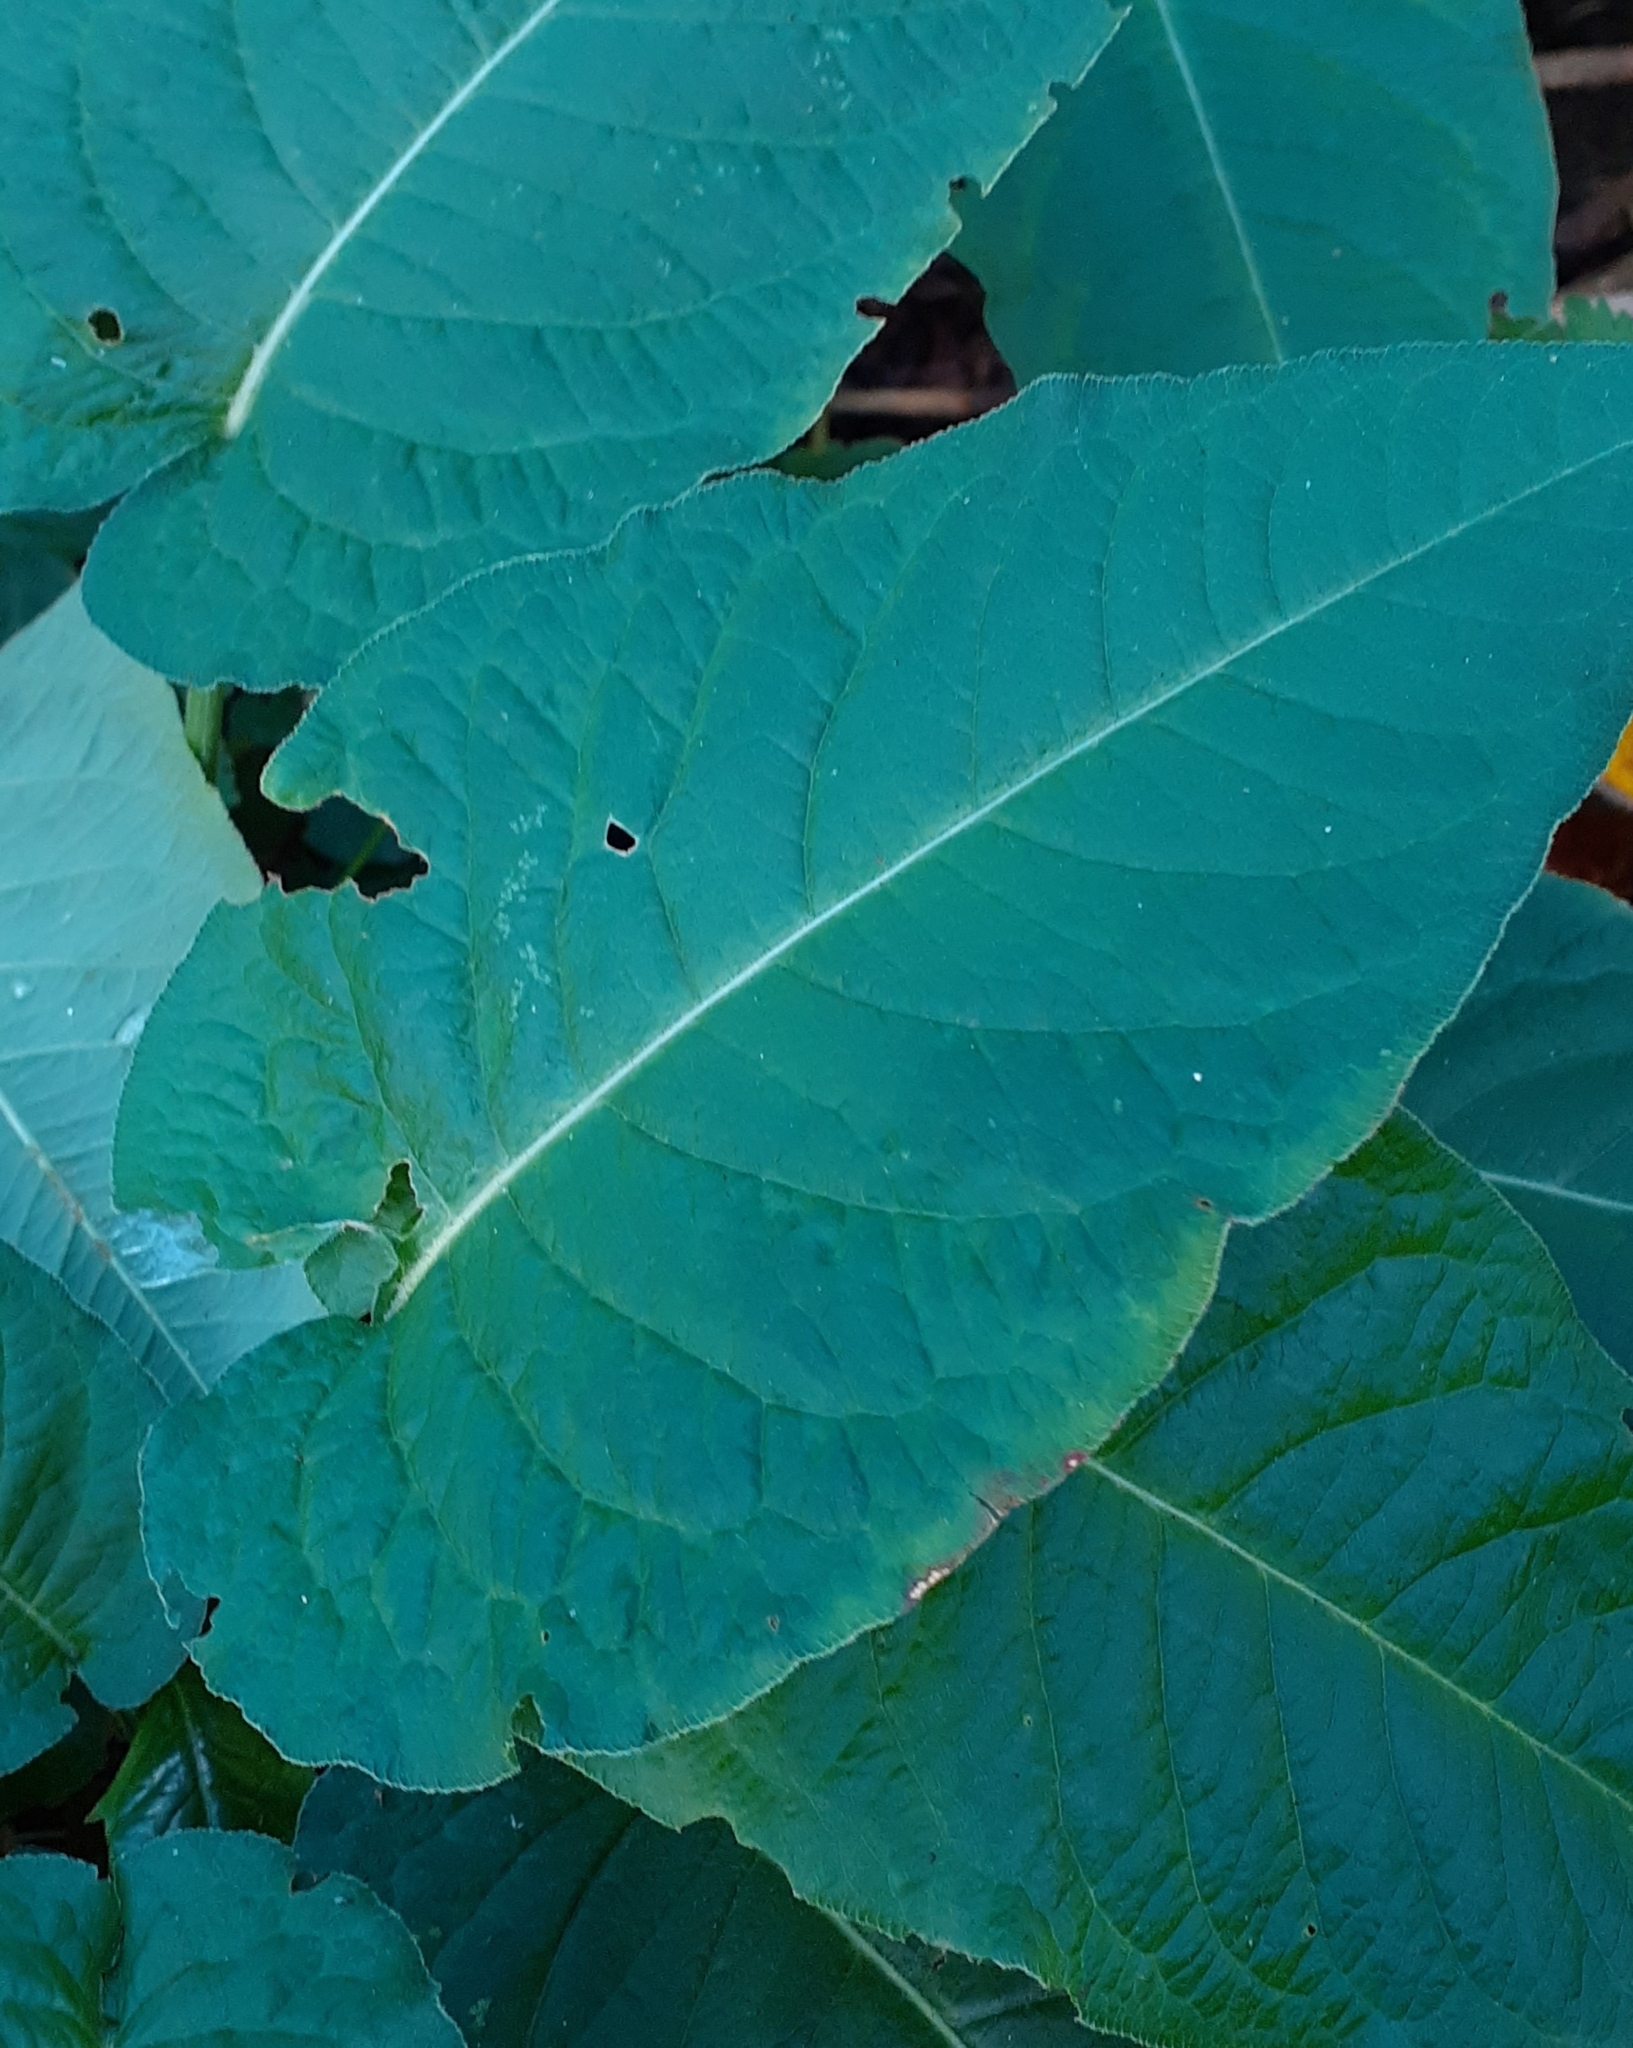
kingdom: Plantae
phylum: Tracheophyta
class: Magnoliopsida
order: Caryophyllales
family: Polygonaceae
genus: Bistorta
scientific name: Bistorta amplexicaulis
